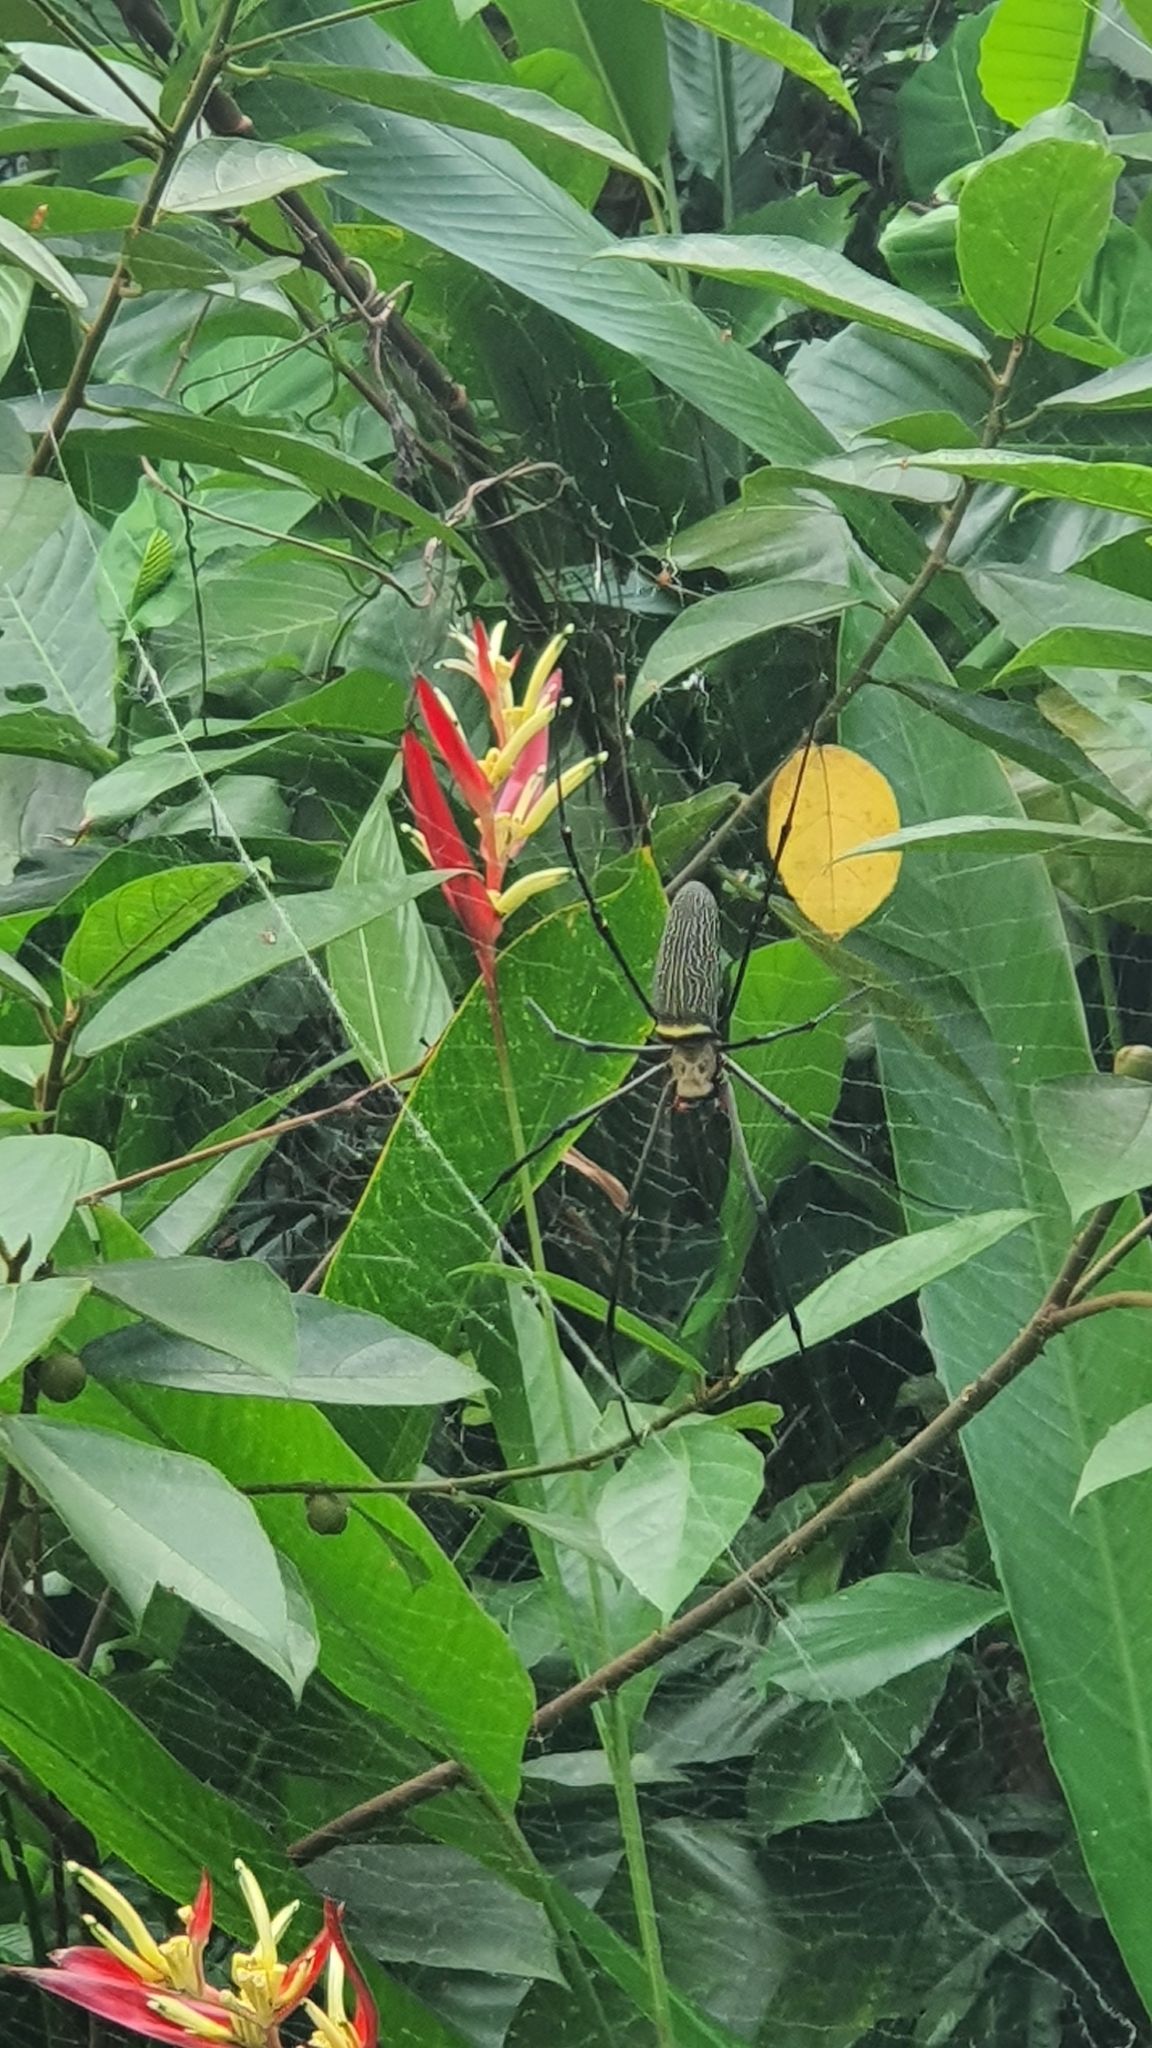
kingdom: Animalia
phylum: Arthropoda
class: Arachnida
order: Araneae
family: Araneidae
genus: Nephila
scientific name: Nephila pilipes
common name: Giant golden orb weaver
